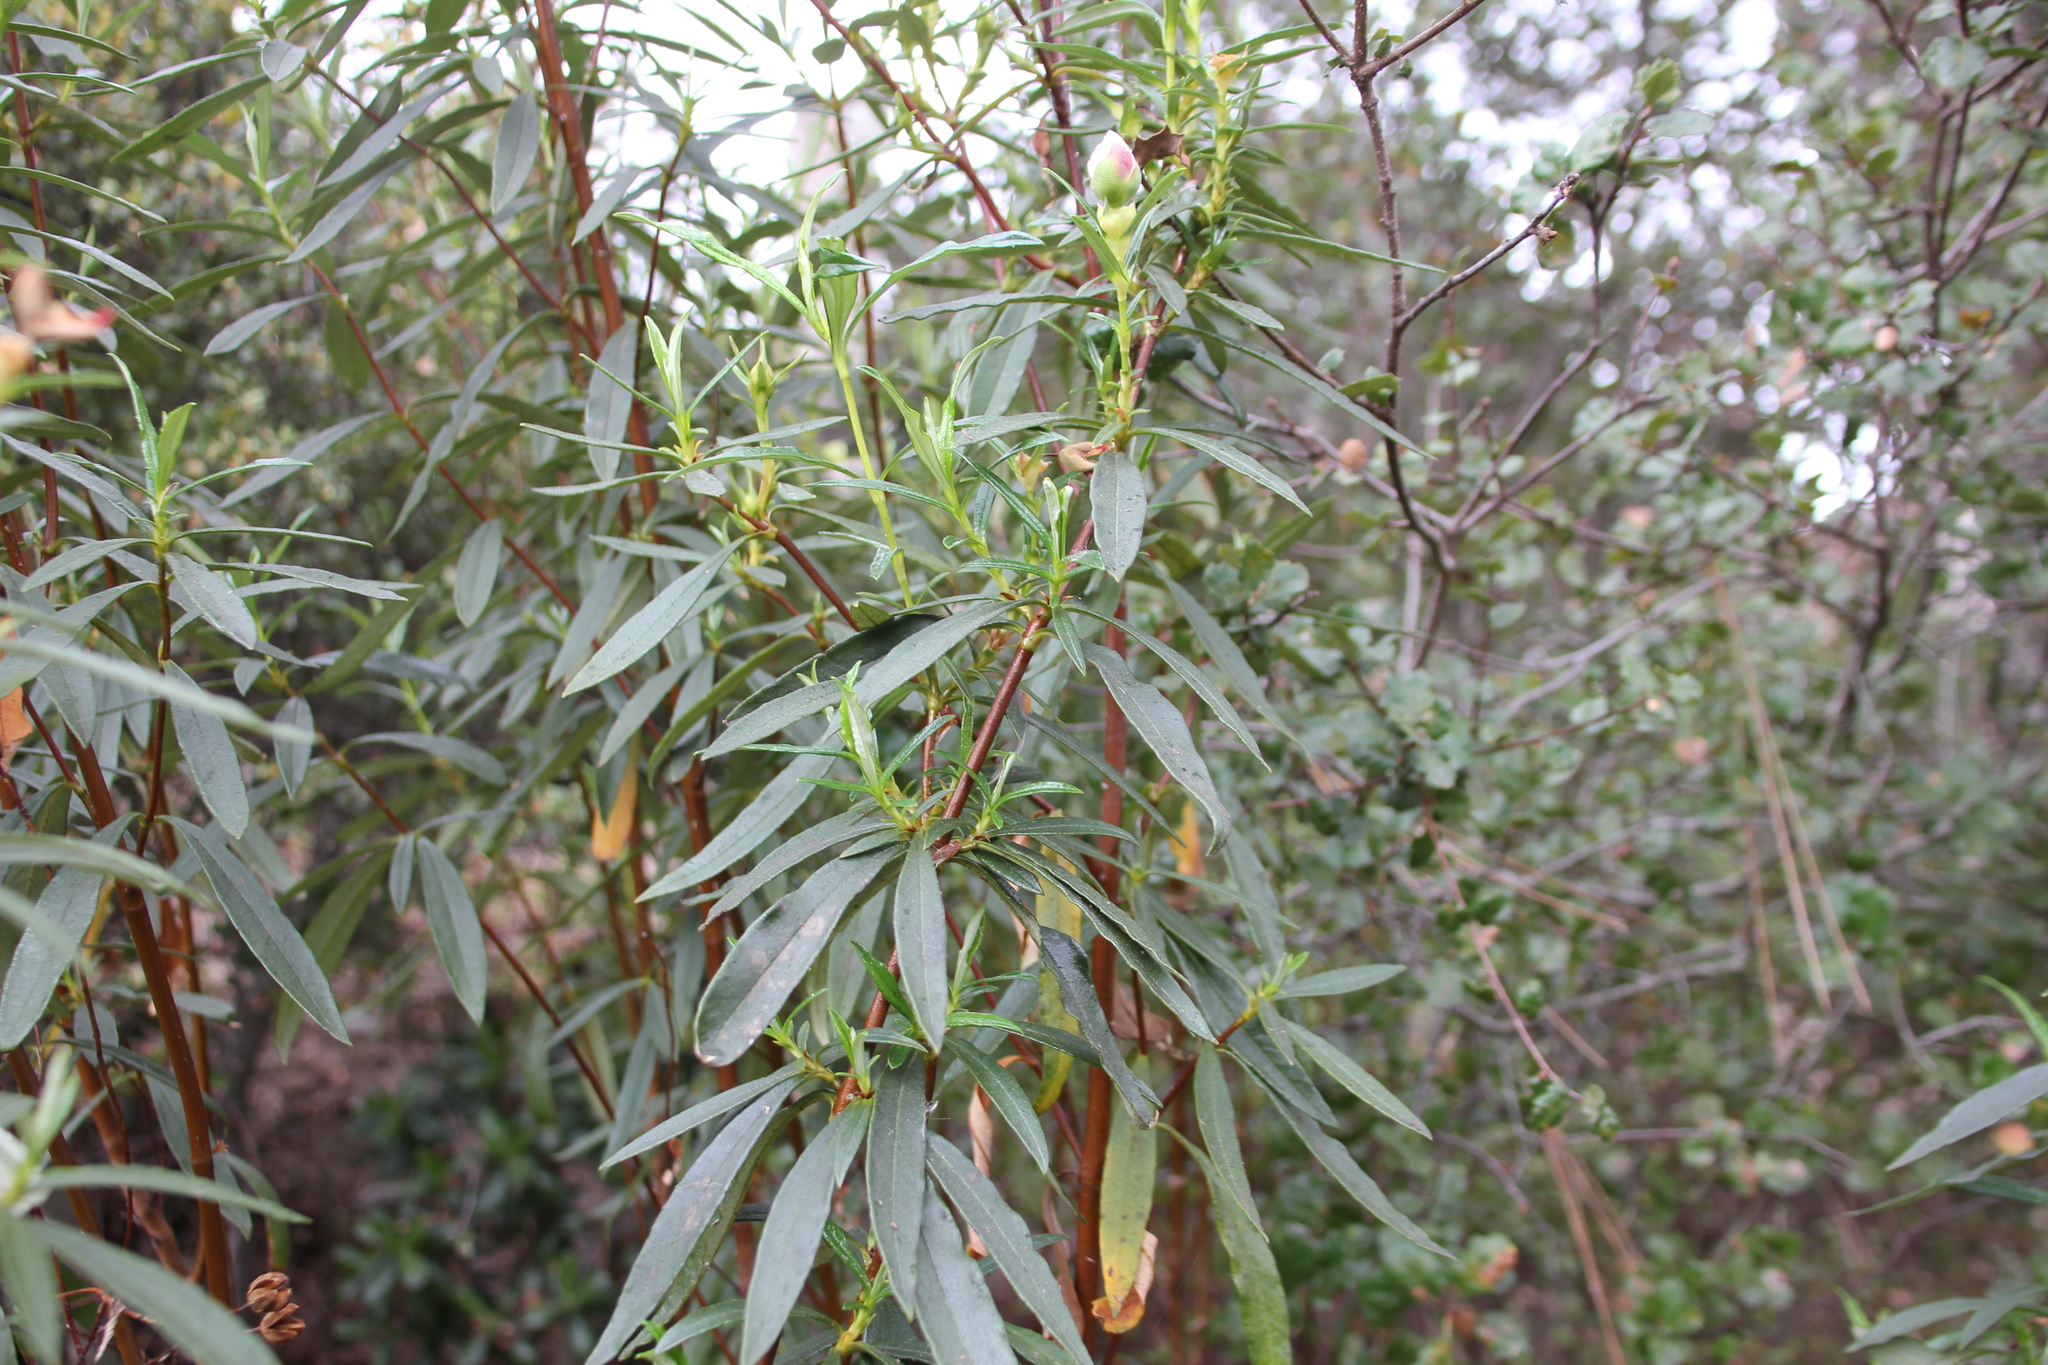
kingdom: Plantae
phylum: Tracheophyta
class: Magnoliopsida
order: Malvales
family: Cistaceae
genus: Cistus
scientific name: Cistus ladanifer
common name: Common gum cistus
